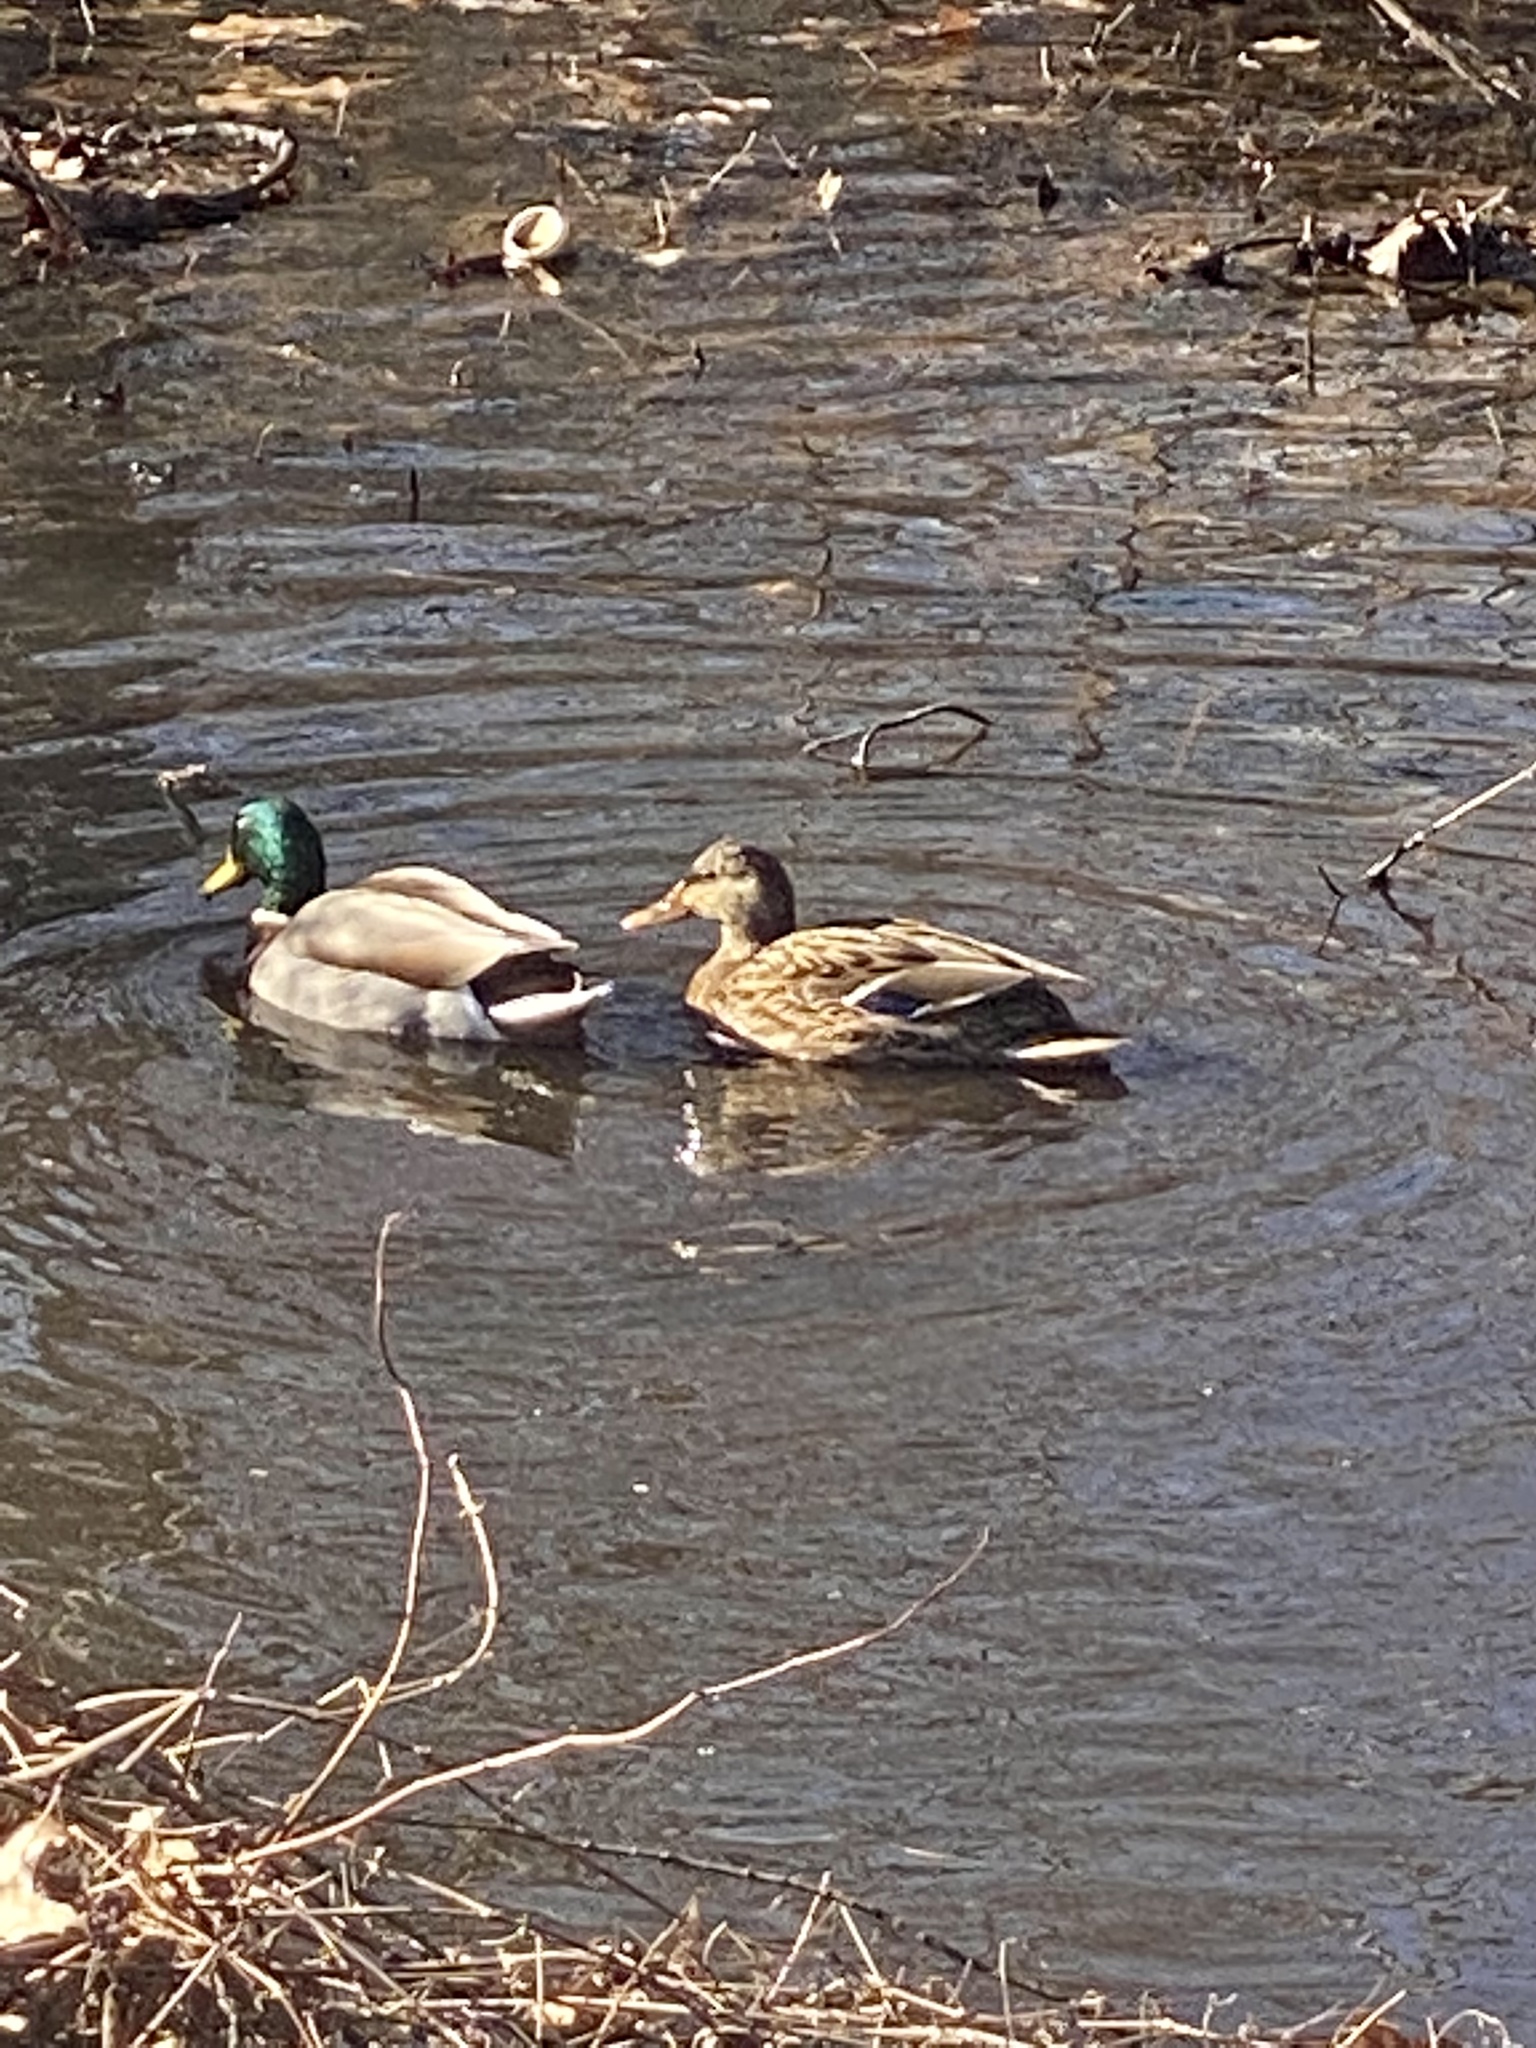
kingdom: Animalia
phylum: Chordata
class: Aves
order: Anseriformes
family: Anatidae
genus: Anas
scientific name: Anas platyrhynchos
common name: Mallard
